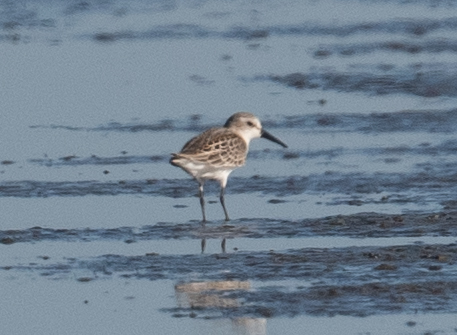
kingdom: Animalia
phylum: Chordata
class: Aves
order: Charadriiformes
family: Scolopacidae
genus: Calidris
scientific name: Calidris mauri
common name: Western sandpiper
